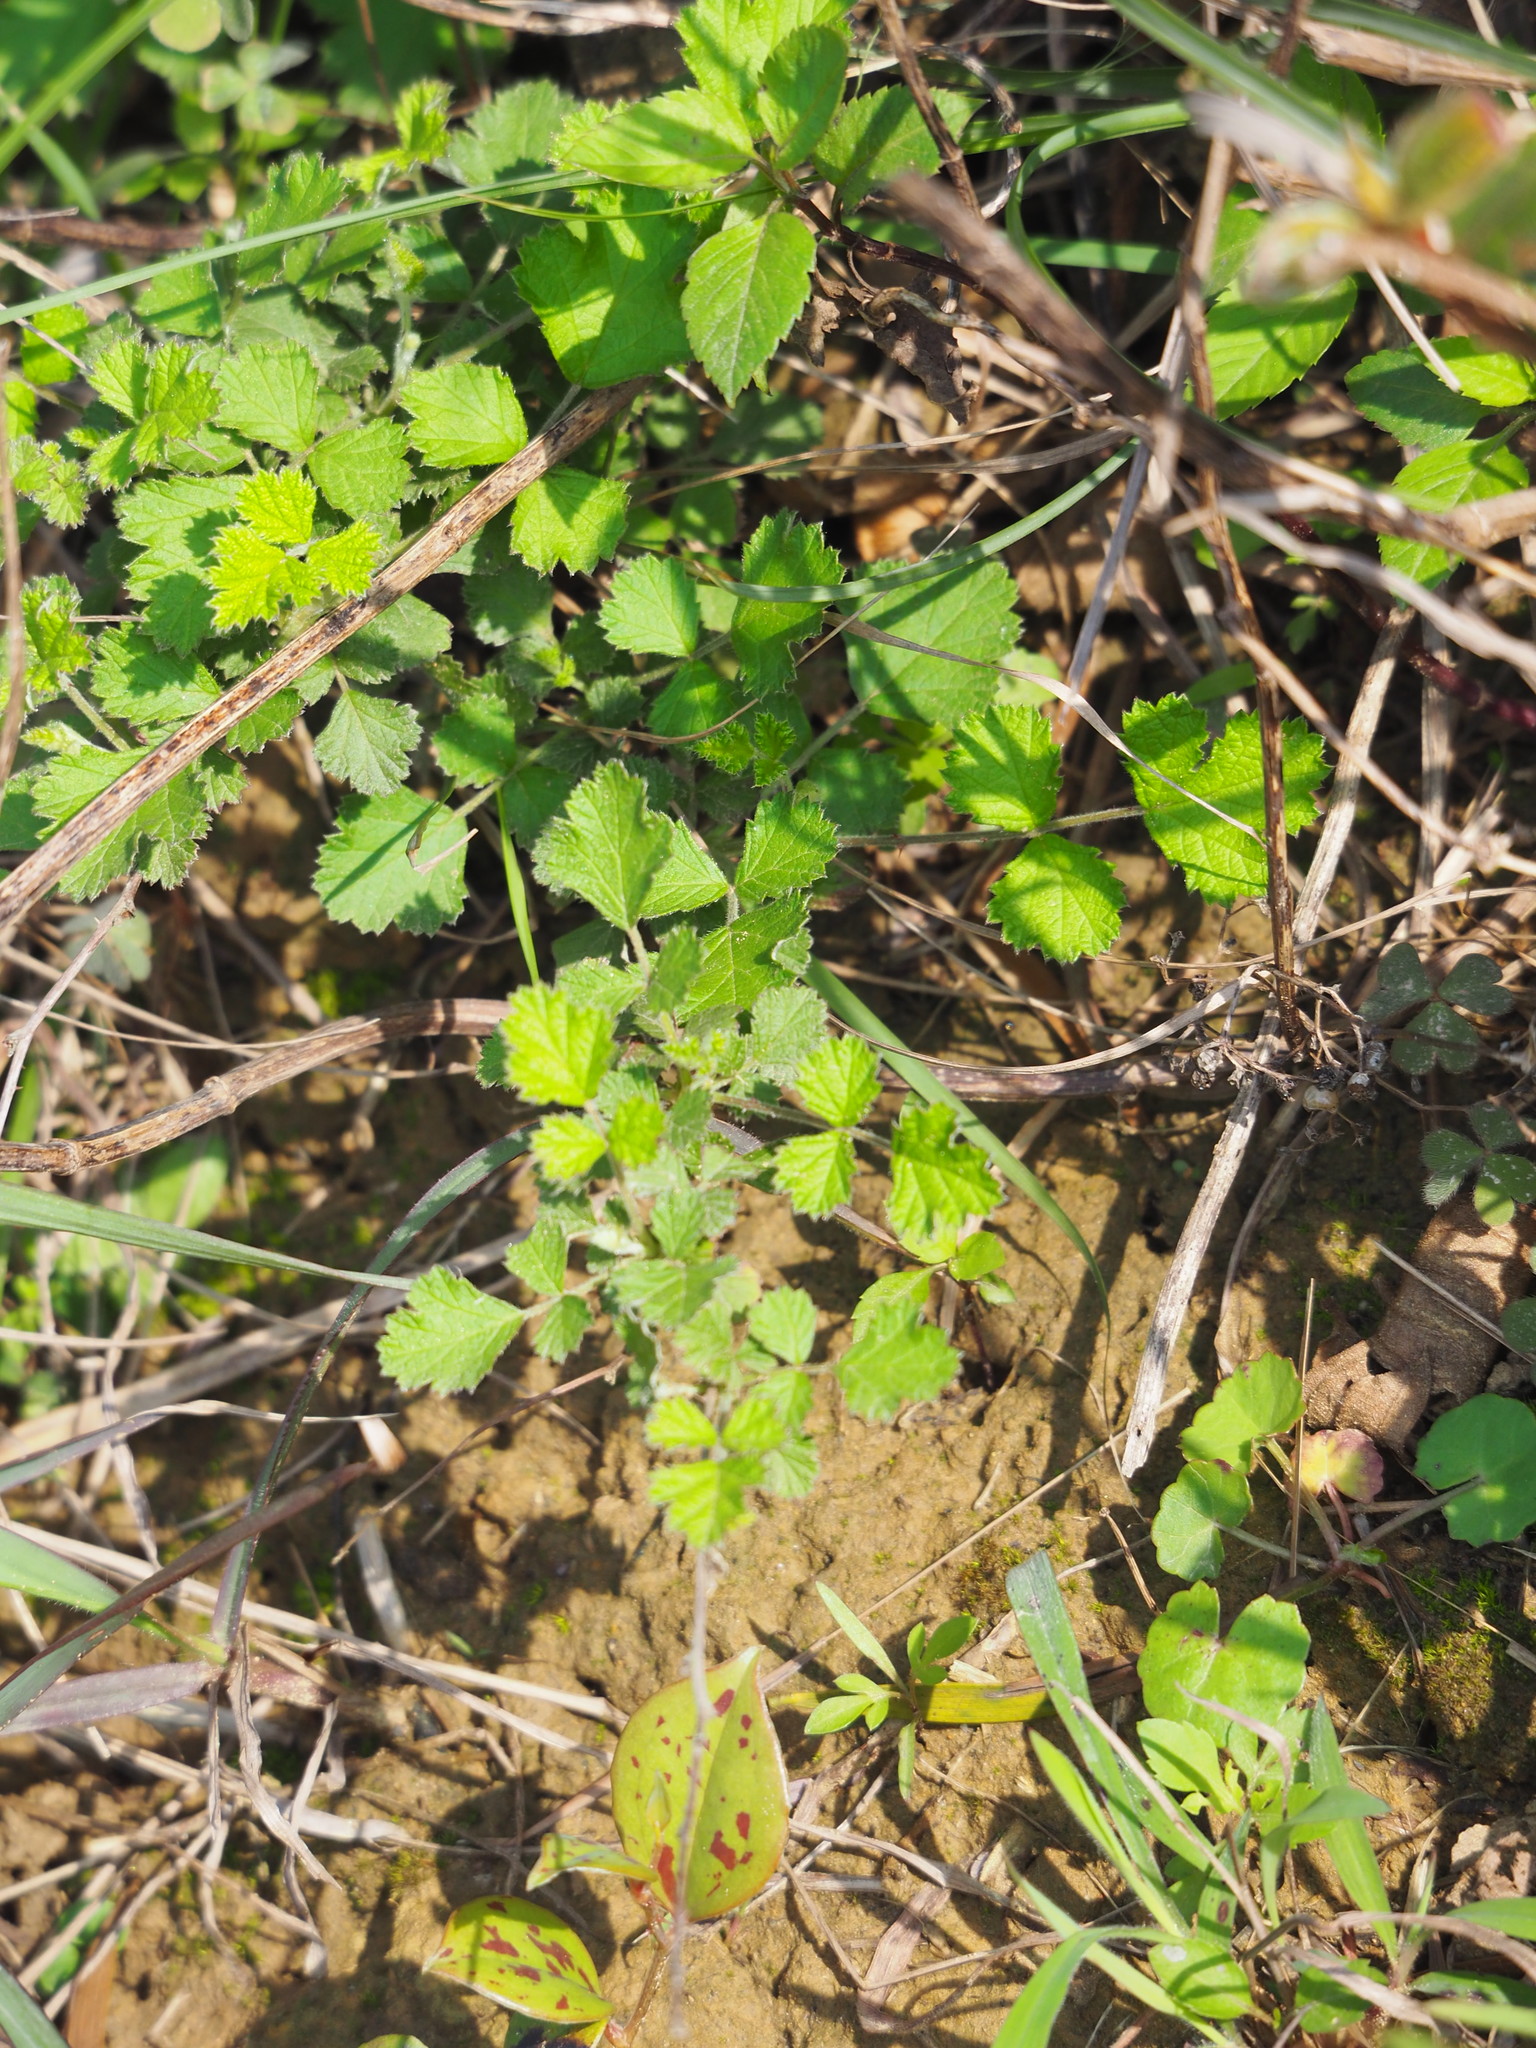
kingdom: Plantae
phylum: Tracheophyta
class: Magnoliopsida
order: Rosales
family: Rosaceae
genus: Rubus
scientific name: Rubus parvifolius
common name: Threeleaf blackberry
